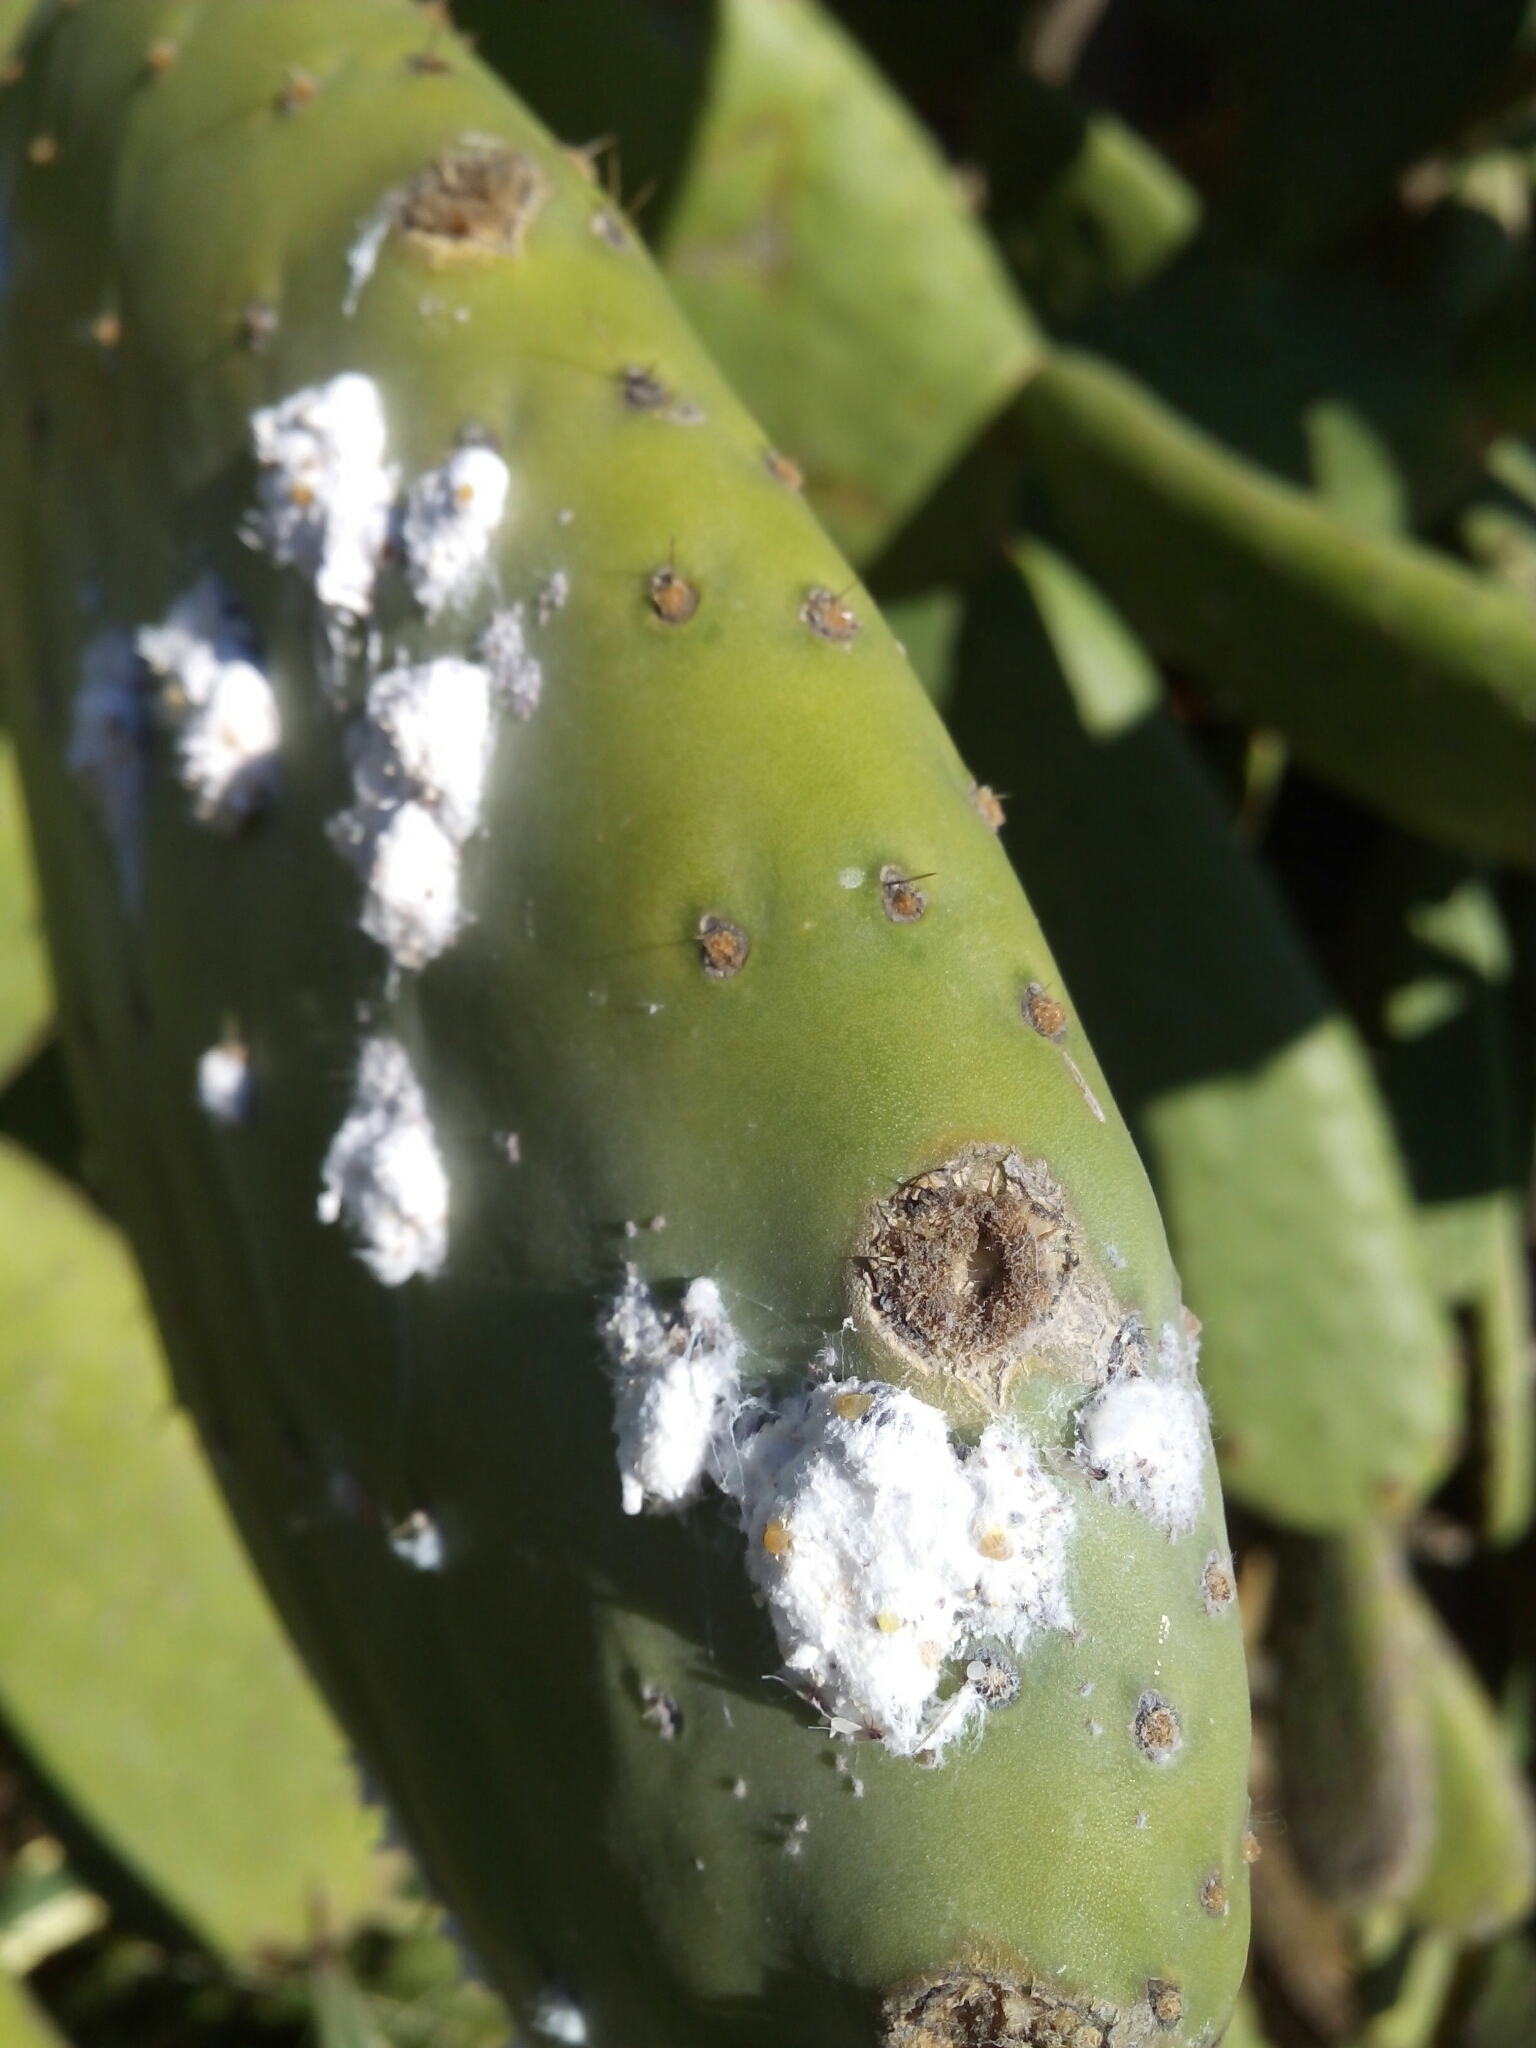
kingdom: Animalia
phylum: Arthropoda
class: Insecta
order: Hemiptera
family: Dactylopiidae
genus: Dactylopius
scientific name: Dactylopius opuntiae
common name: Opuntia cochineal scale
